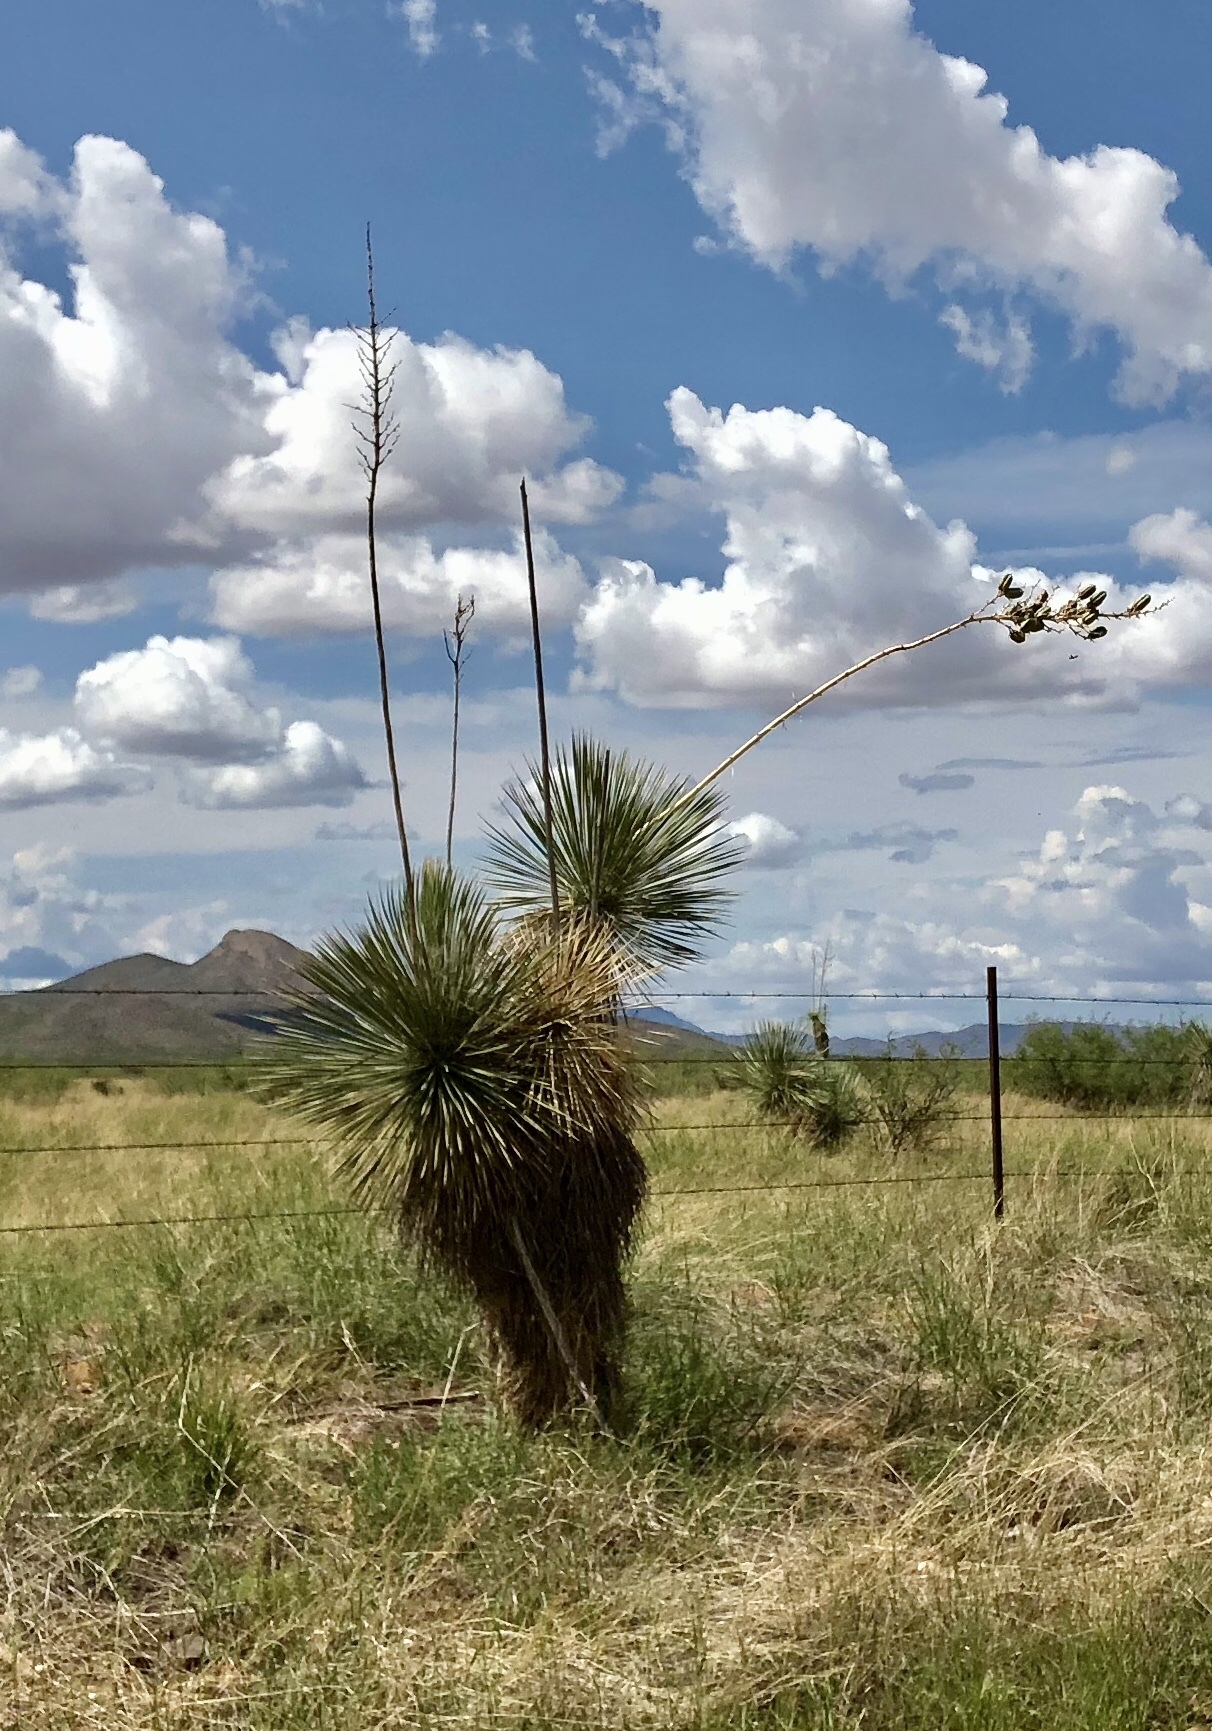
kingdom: Plantae
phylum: Tracheophyta
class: Liliopsida
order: Asparagales
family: Asparagaceae
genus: Yucca
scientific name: Yucca elata
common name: Palmella
